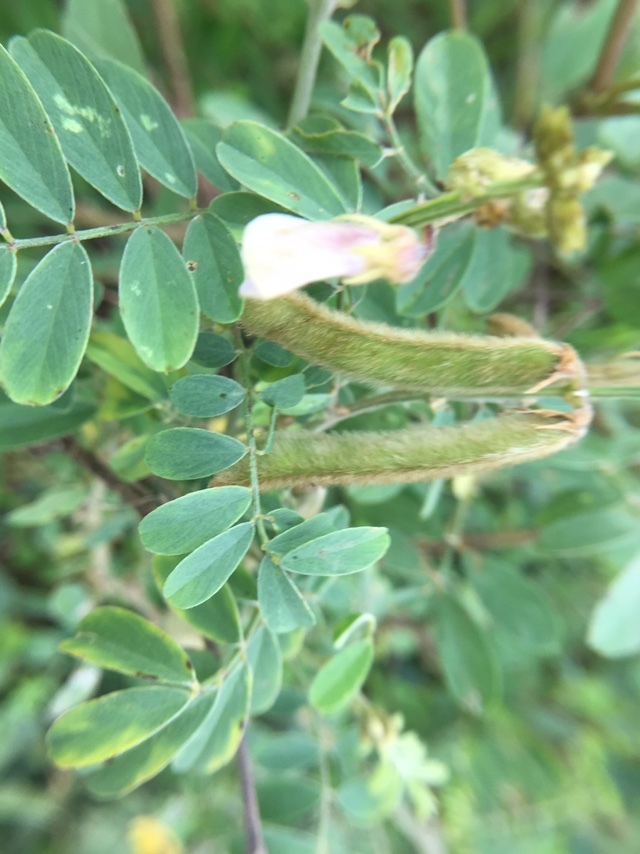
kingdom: Plantae
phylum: Tracheophyta
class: Magnoliopsida
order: Fabales
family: Fabaceae
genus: Tephrosia
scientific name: Tephrosia villosa
